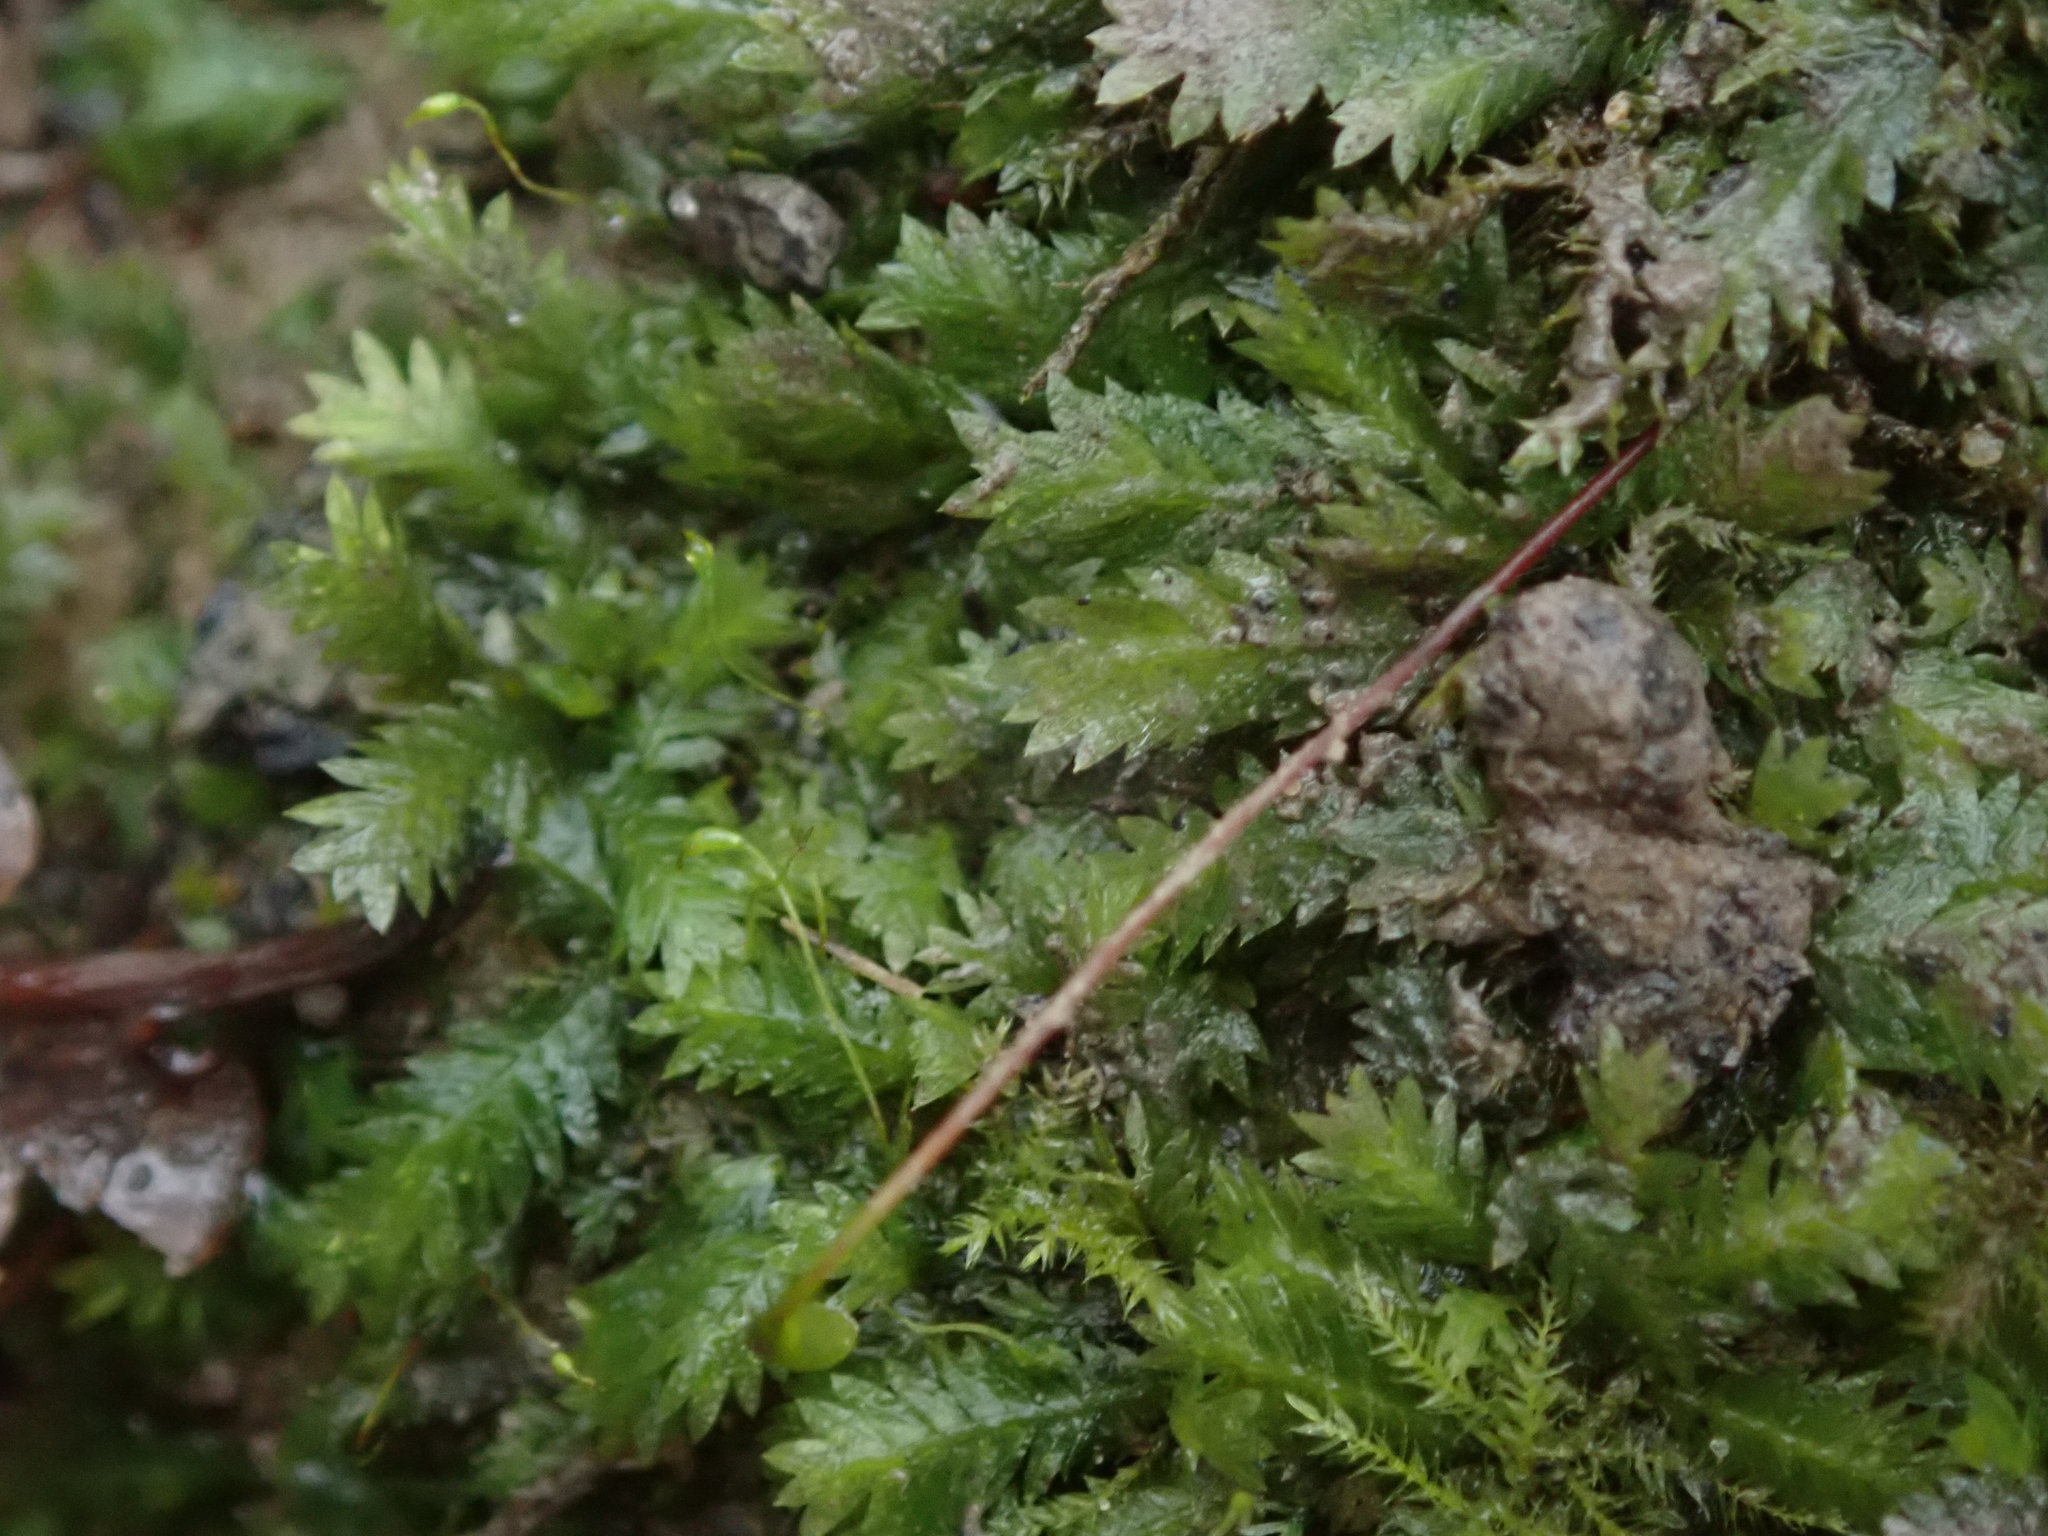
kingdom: Plantae
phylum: Bryophyta
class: Bryopsida
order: Dicranales
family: Fissidentaceae
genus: Fissidens
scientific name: Fissidens taxifolius
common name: Yew-leaved pocket moss
